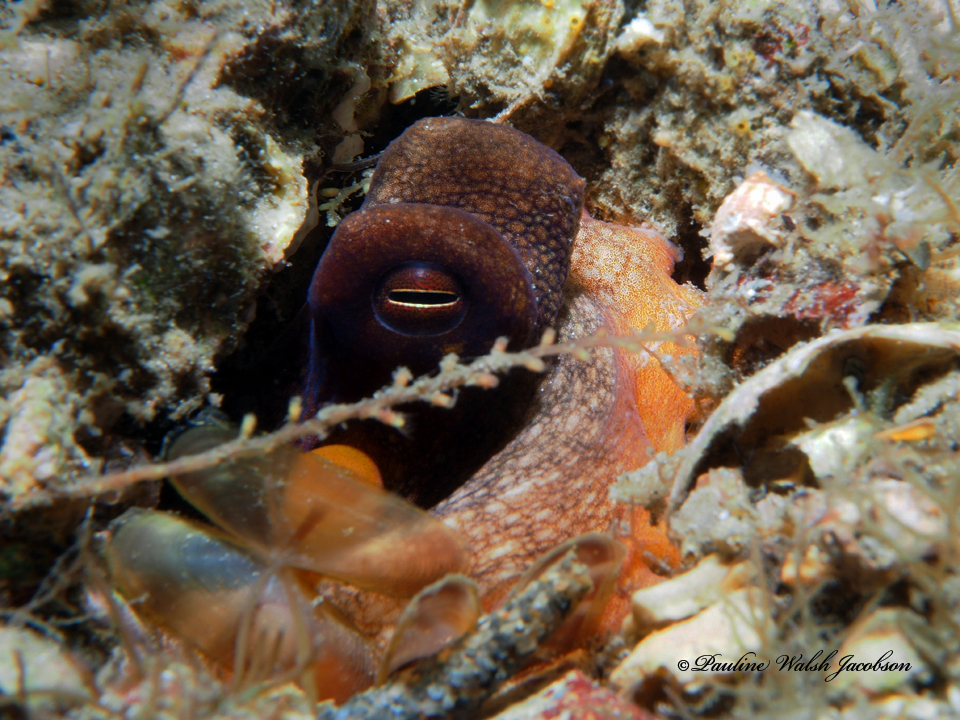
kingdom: Animalia
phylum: Mollusca
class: Cephalopoda
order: Octopoda
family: Octopodidae
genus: Octopus
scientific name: Octopus americanus
